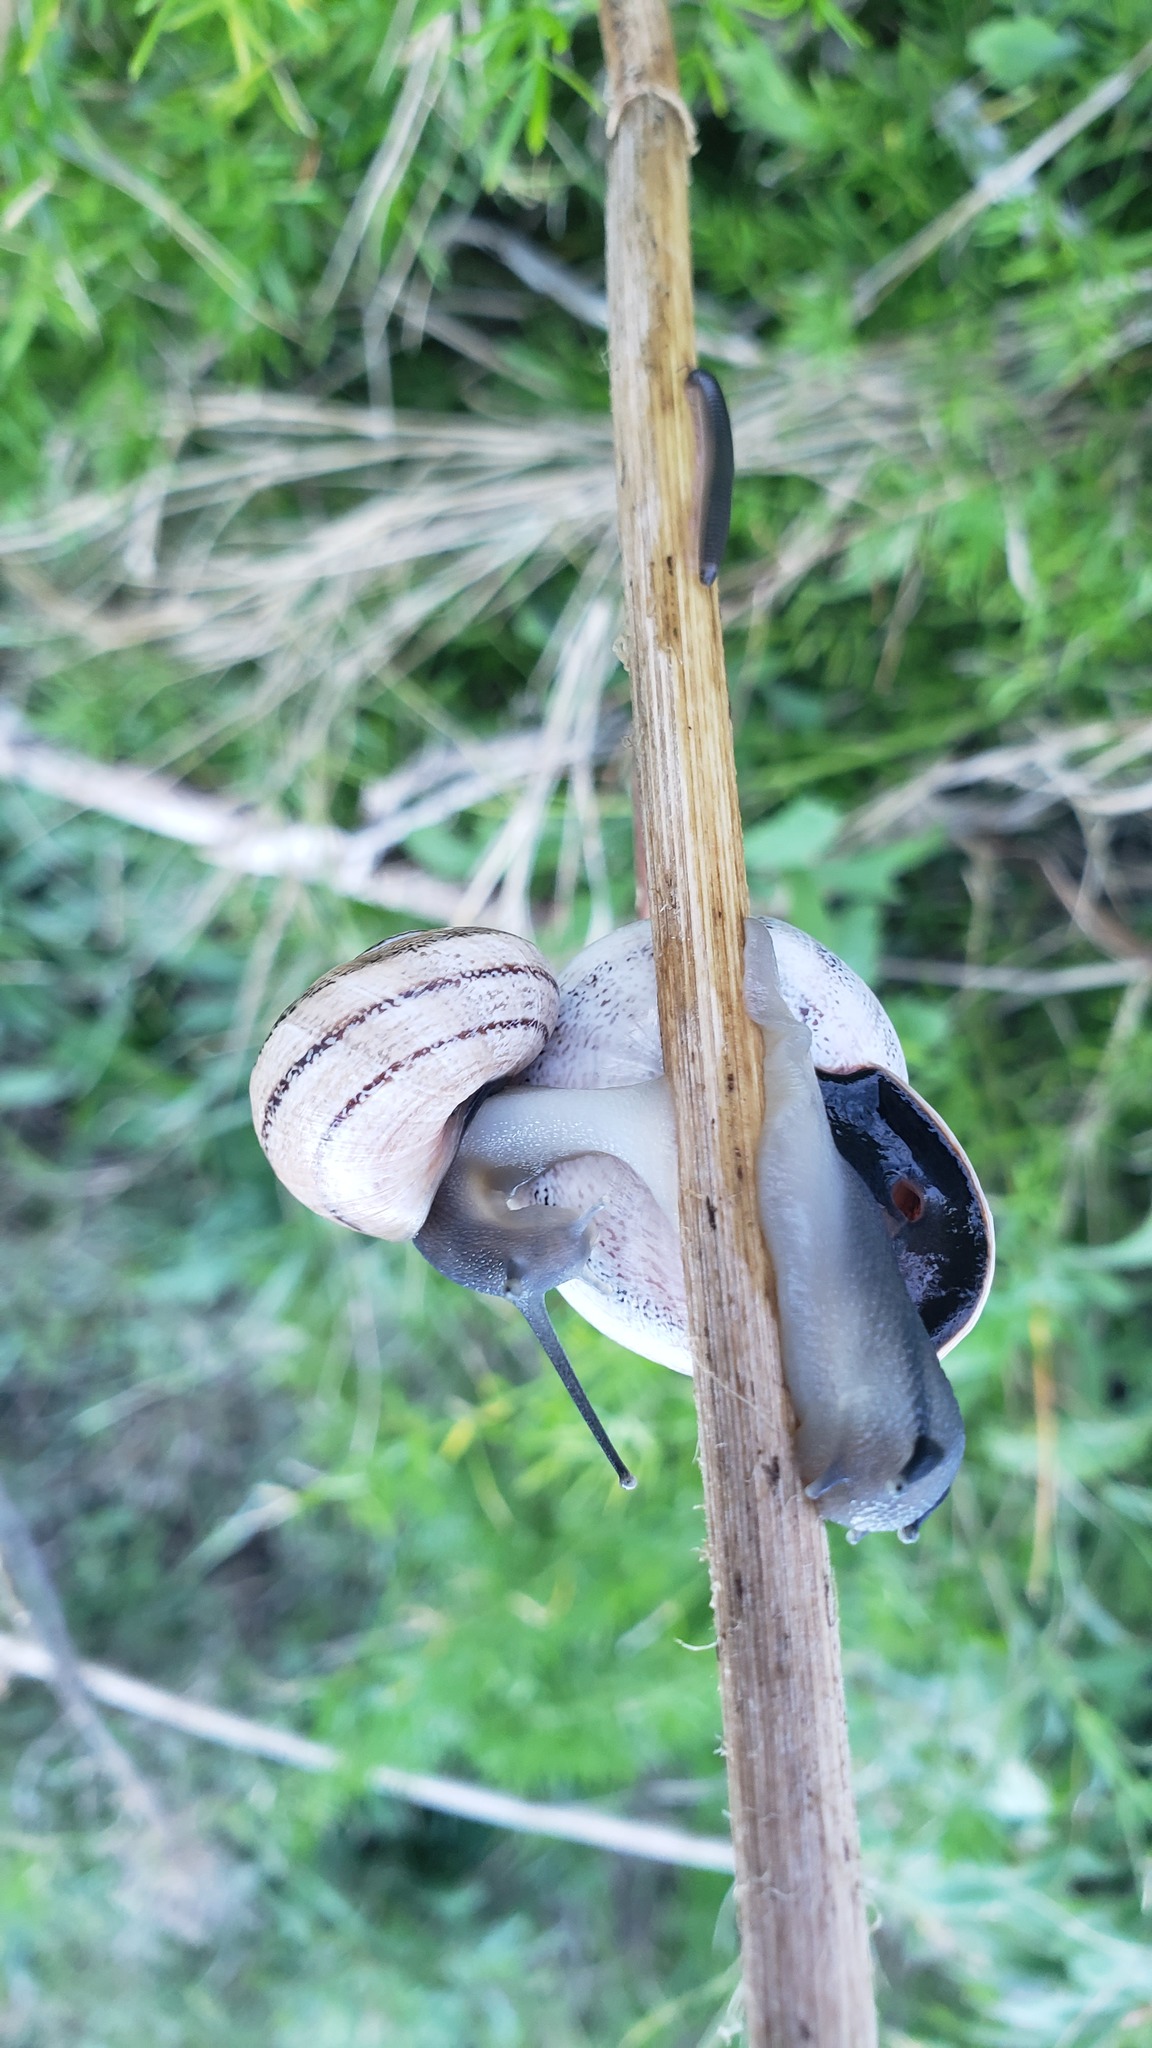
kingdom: Animalia
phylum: Mollusca
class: Gastropoda
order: Stylommatophora
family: Helicidae
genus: Otala
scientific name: Otala lactea
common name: Milk snail
